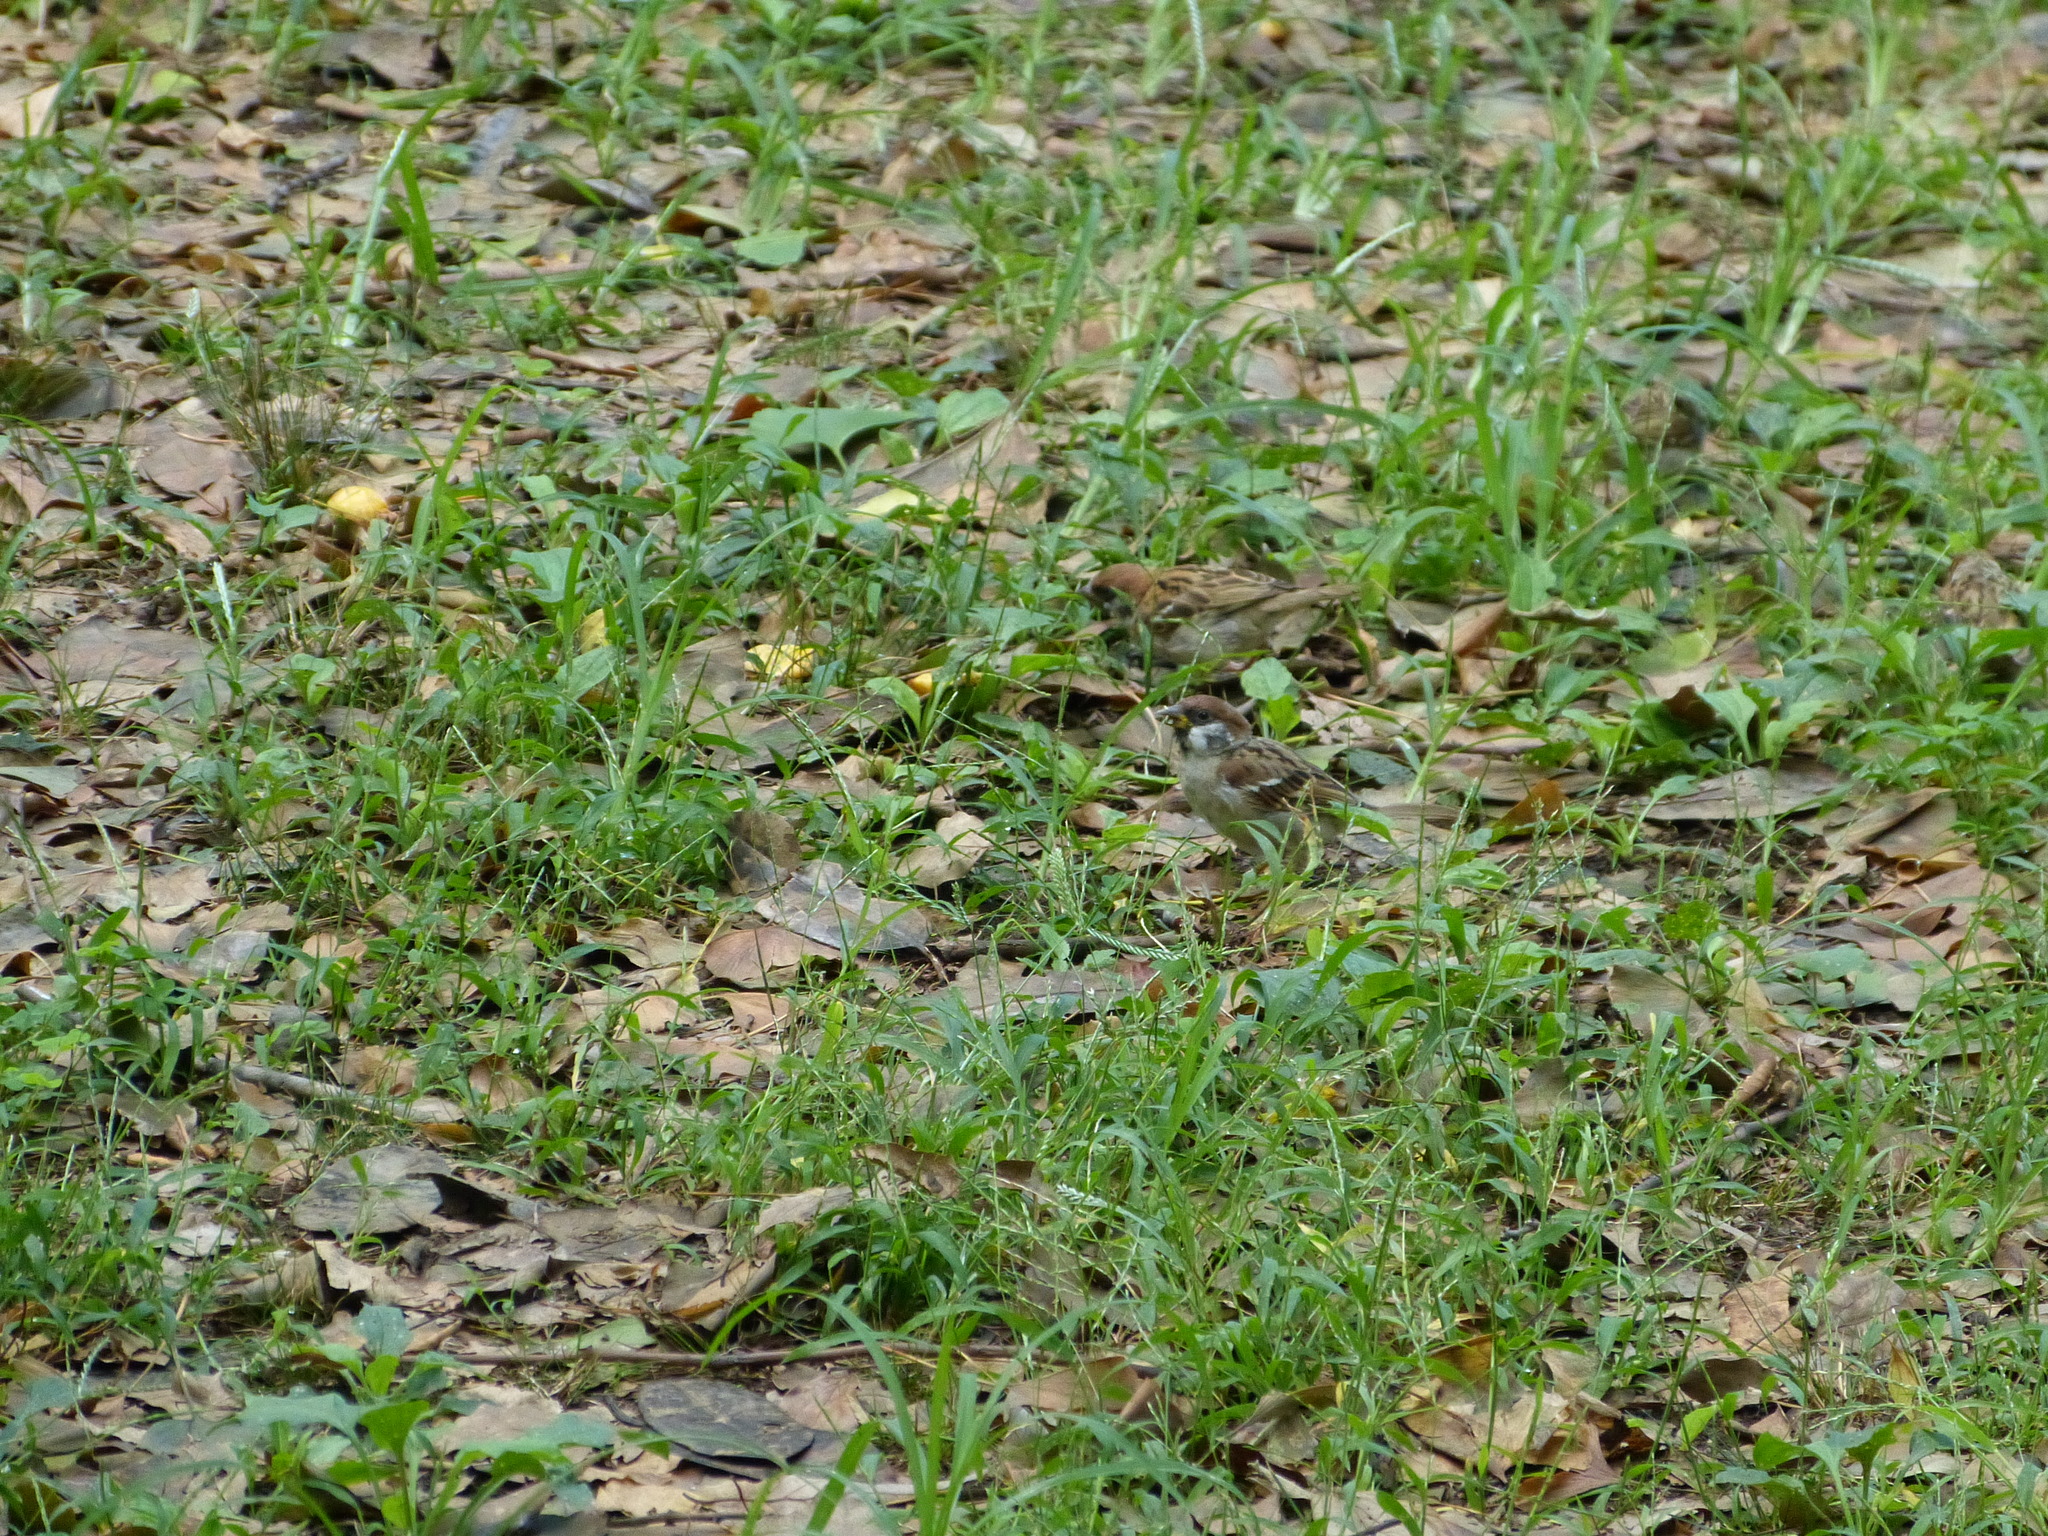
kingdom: Animalia
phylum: Chordata
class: Aves
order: Passeriformes
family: Passeridae
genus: Passer
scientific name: Passer montanus
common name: Eurasian tree sparrow
